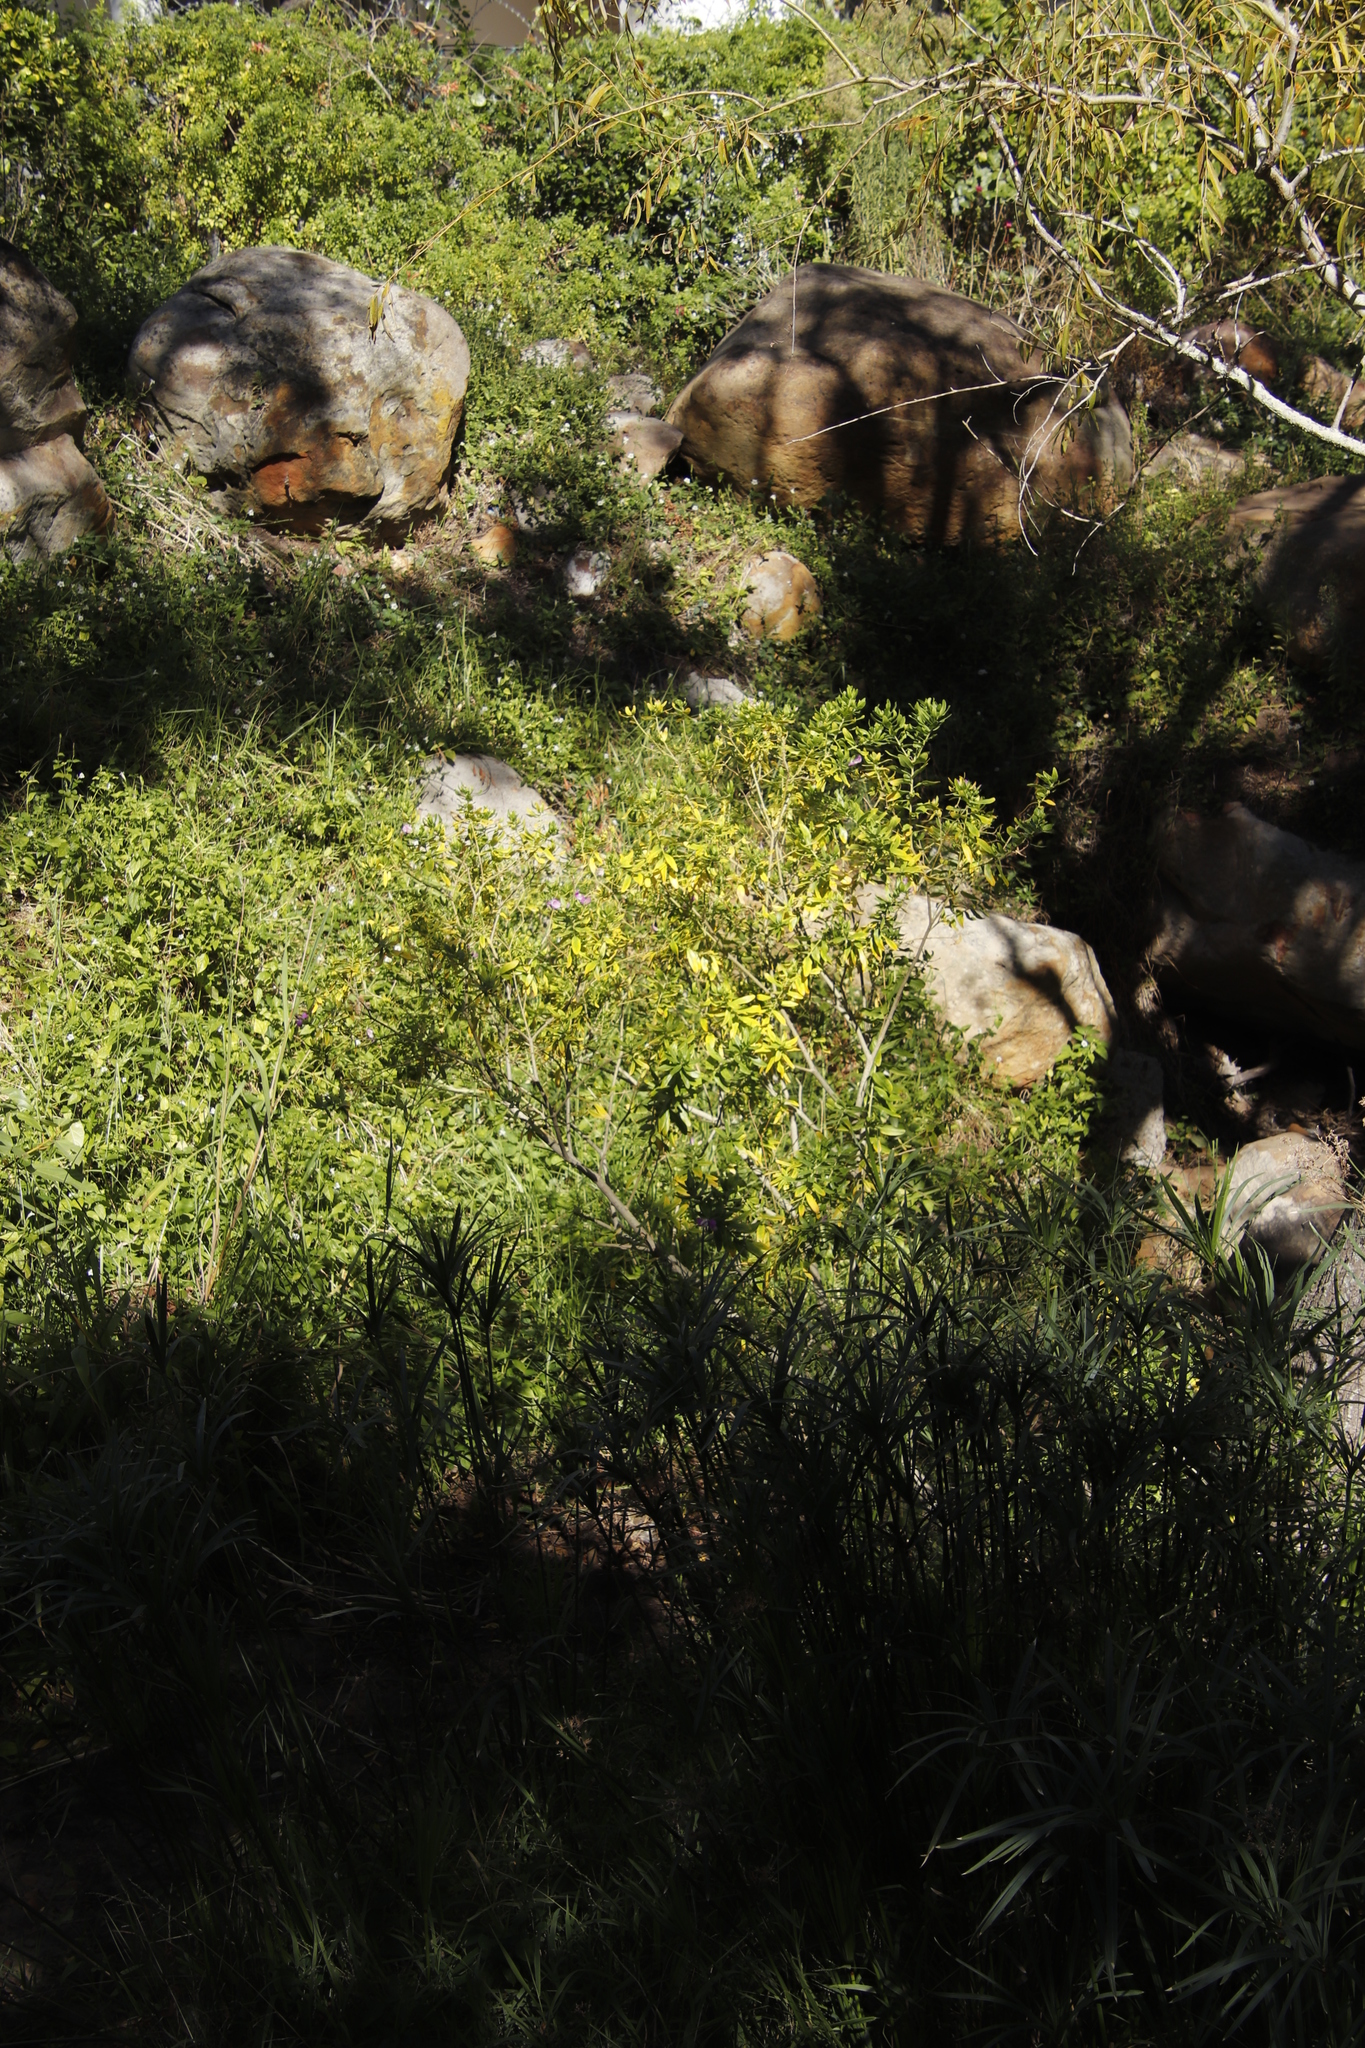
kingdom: Plantae
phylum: Tracheophyta
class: Magnoliopsida
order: Fabales
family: Polygalaceae
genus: Polygala
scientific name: Polygala myrtifolia
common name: Myrtle-leaf milkwort
